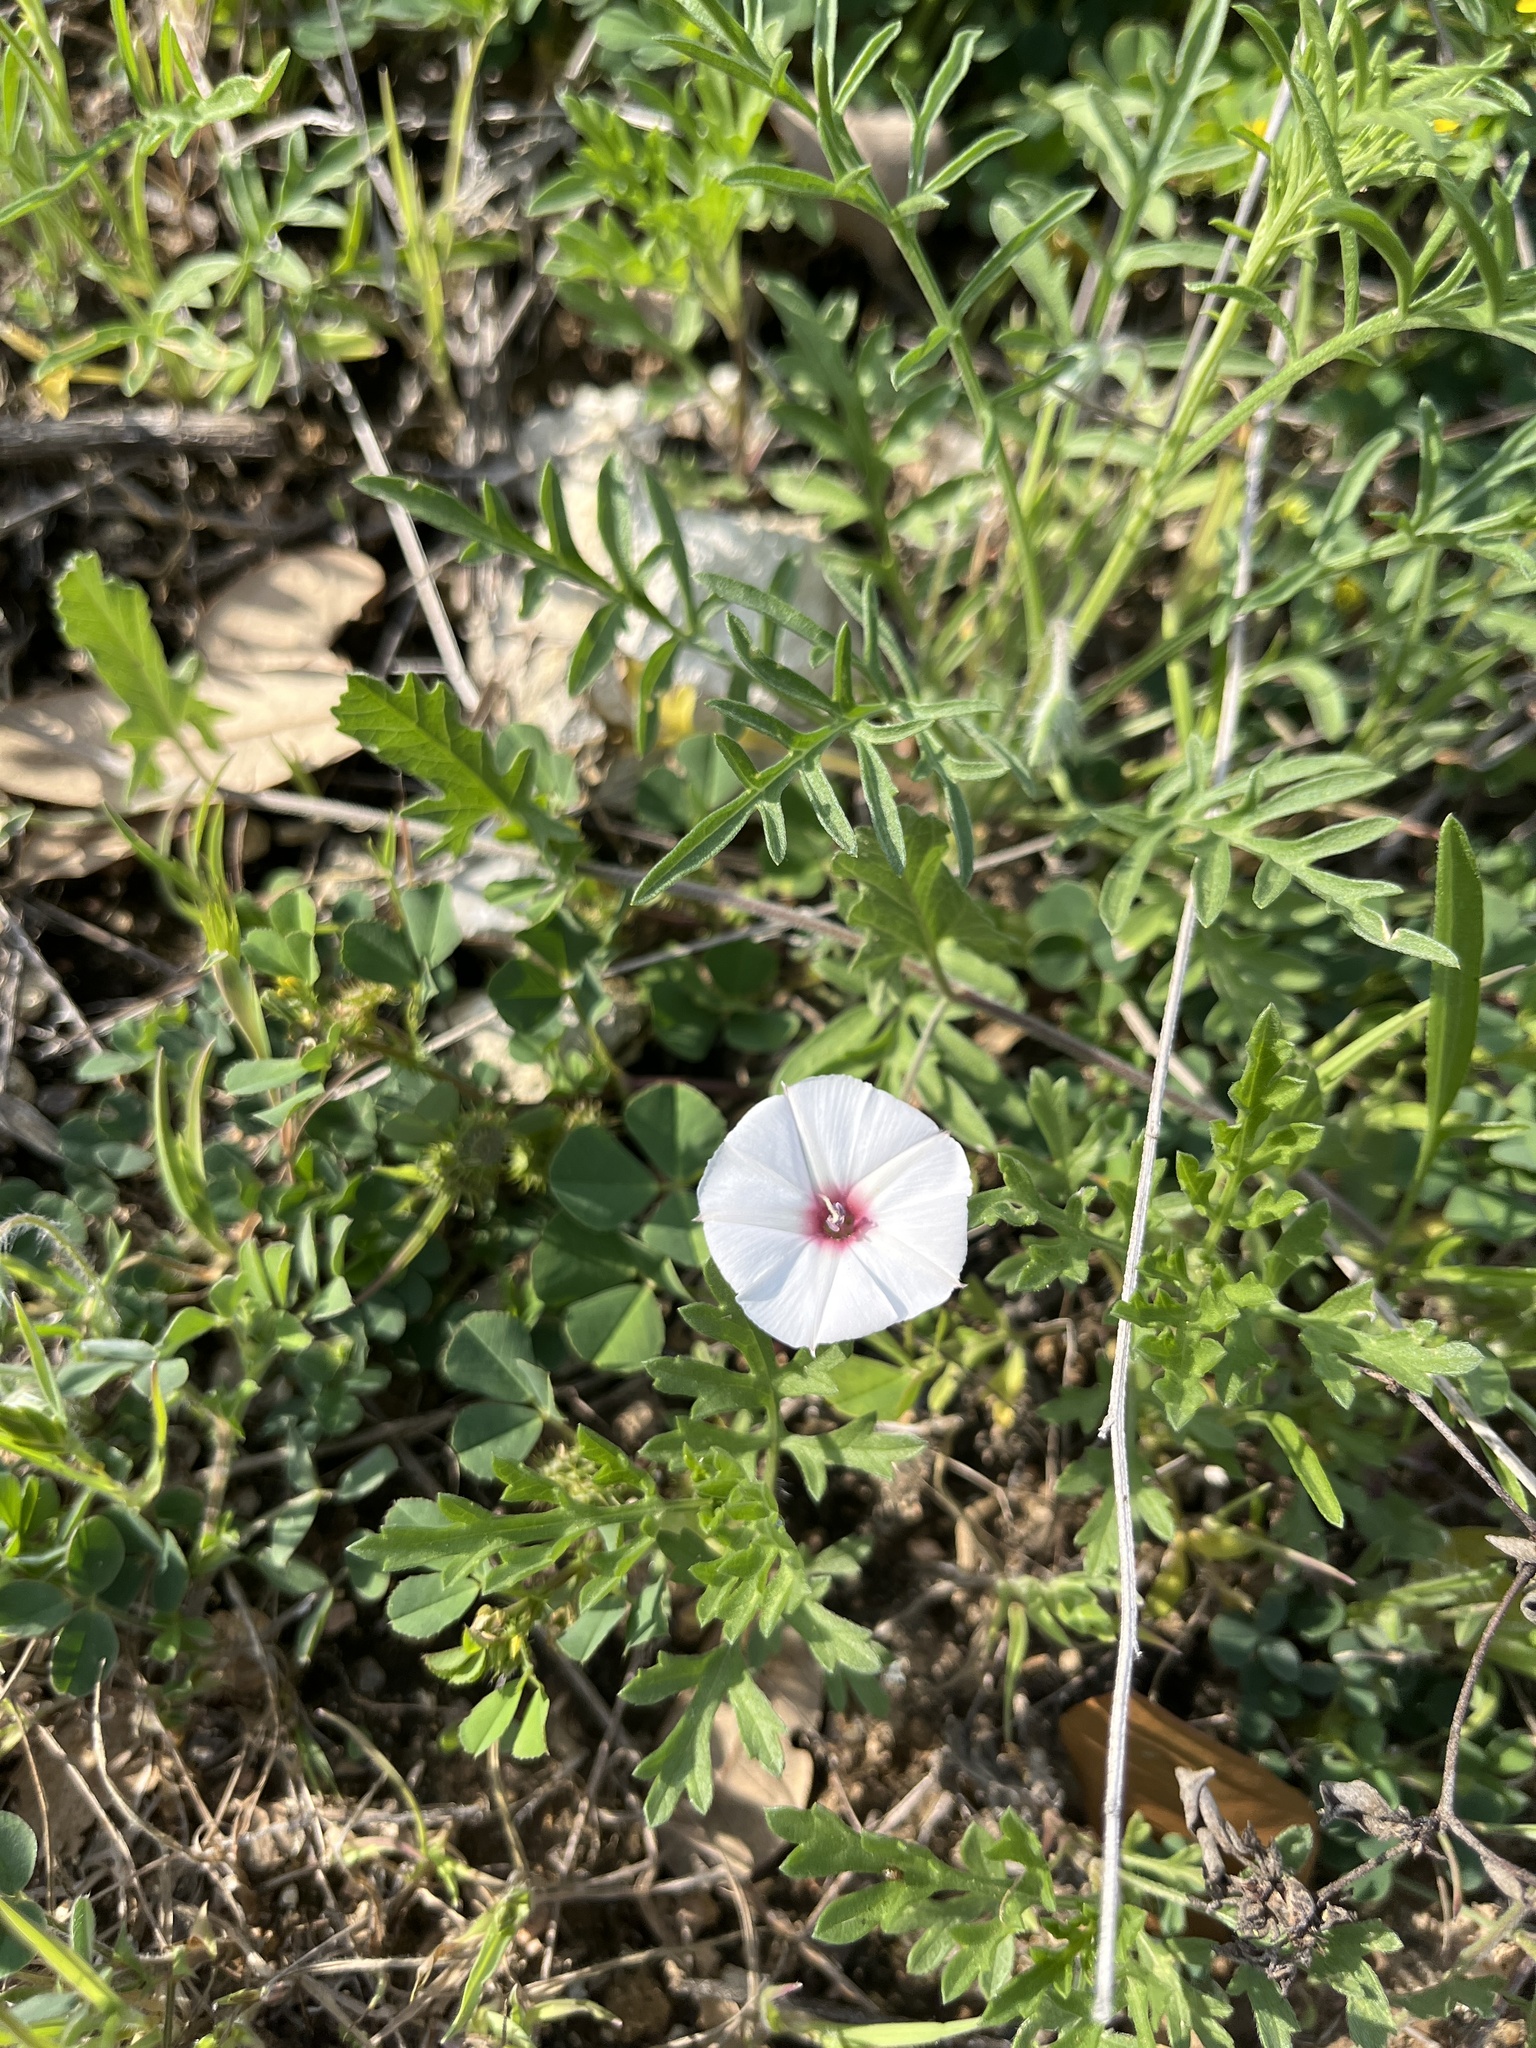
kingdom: Plantae
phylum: Tracheophyta
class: Magnoliopsida
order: Solanales
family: Convolvulaceae
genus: Convolvulus
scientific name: Convolvulus equitans
